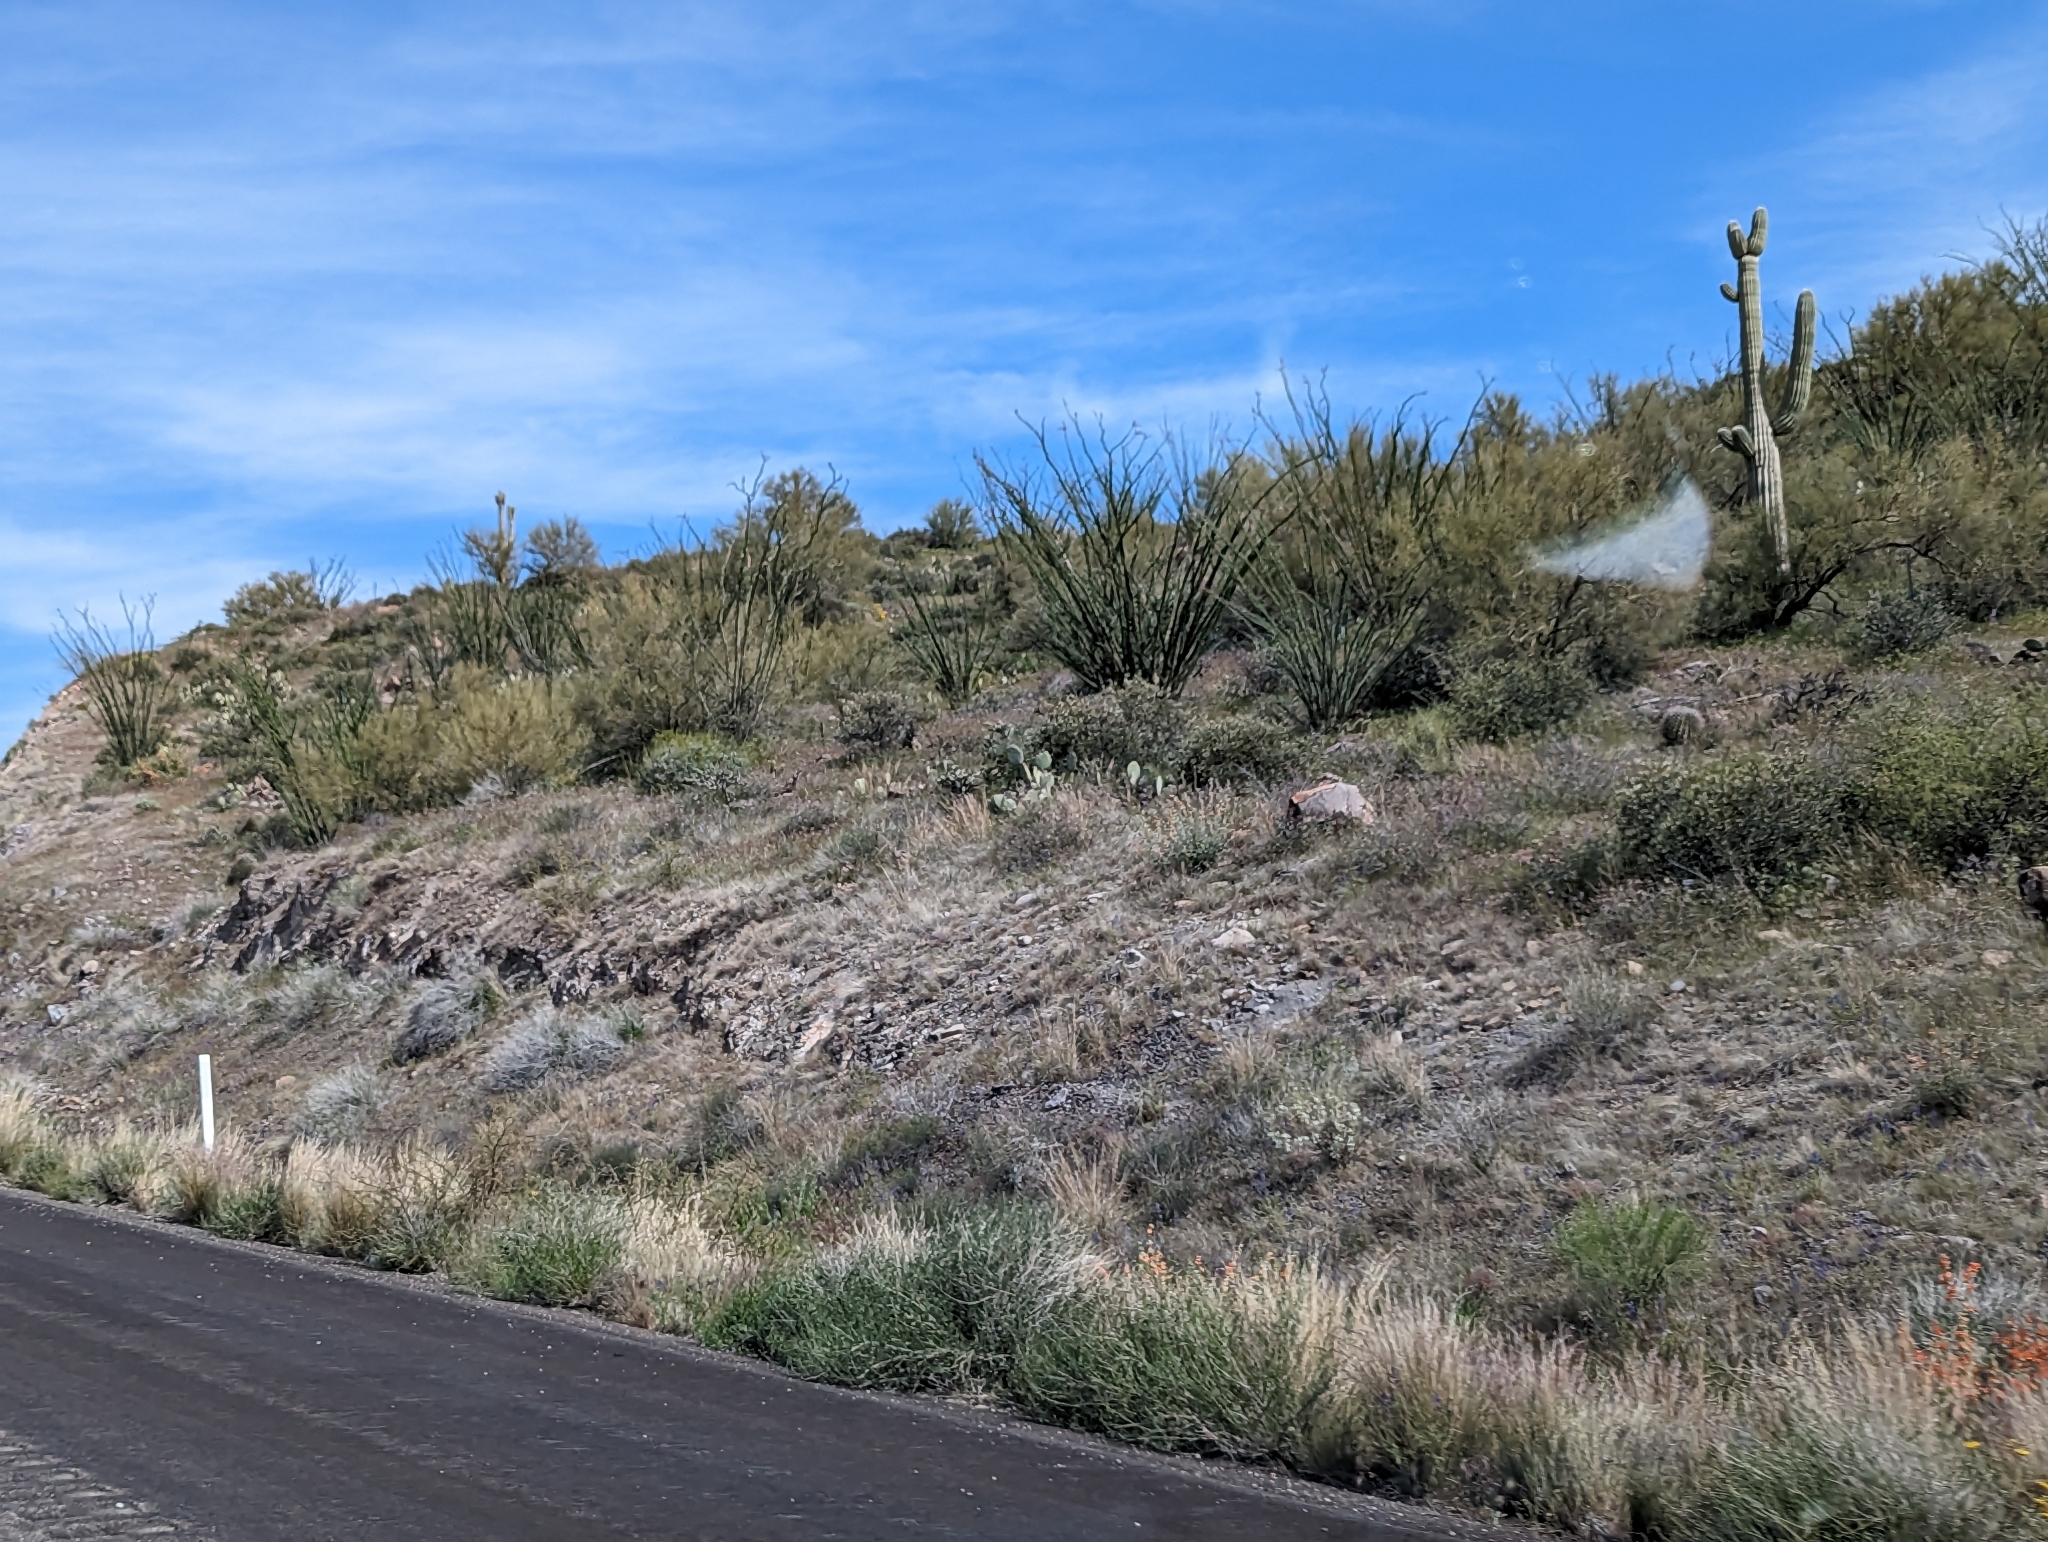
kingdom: Plantae
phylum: Tracheophyta
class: Magnoliopsida
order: Ericales
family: Fouquieriaceae
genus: Fouquieria
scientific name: Fouquieria splendens
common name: Vine-cactus
